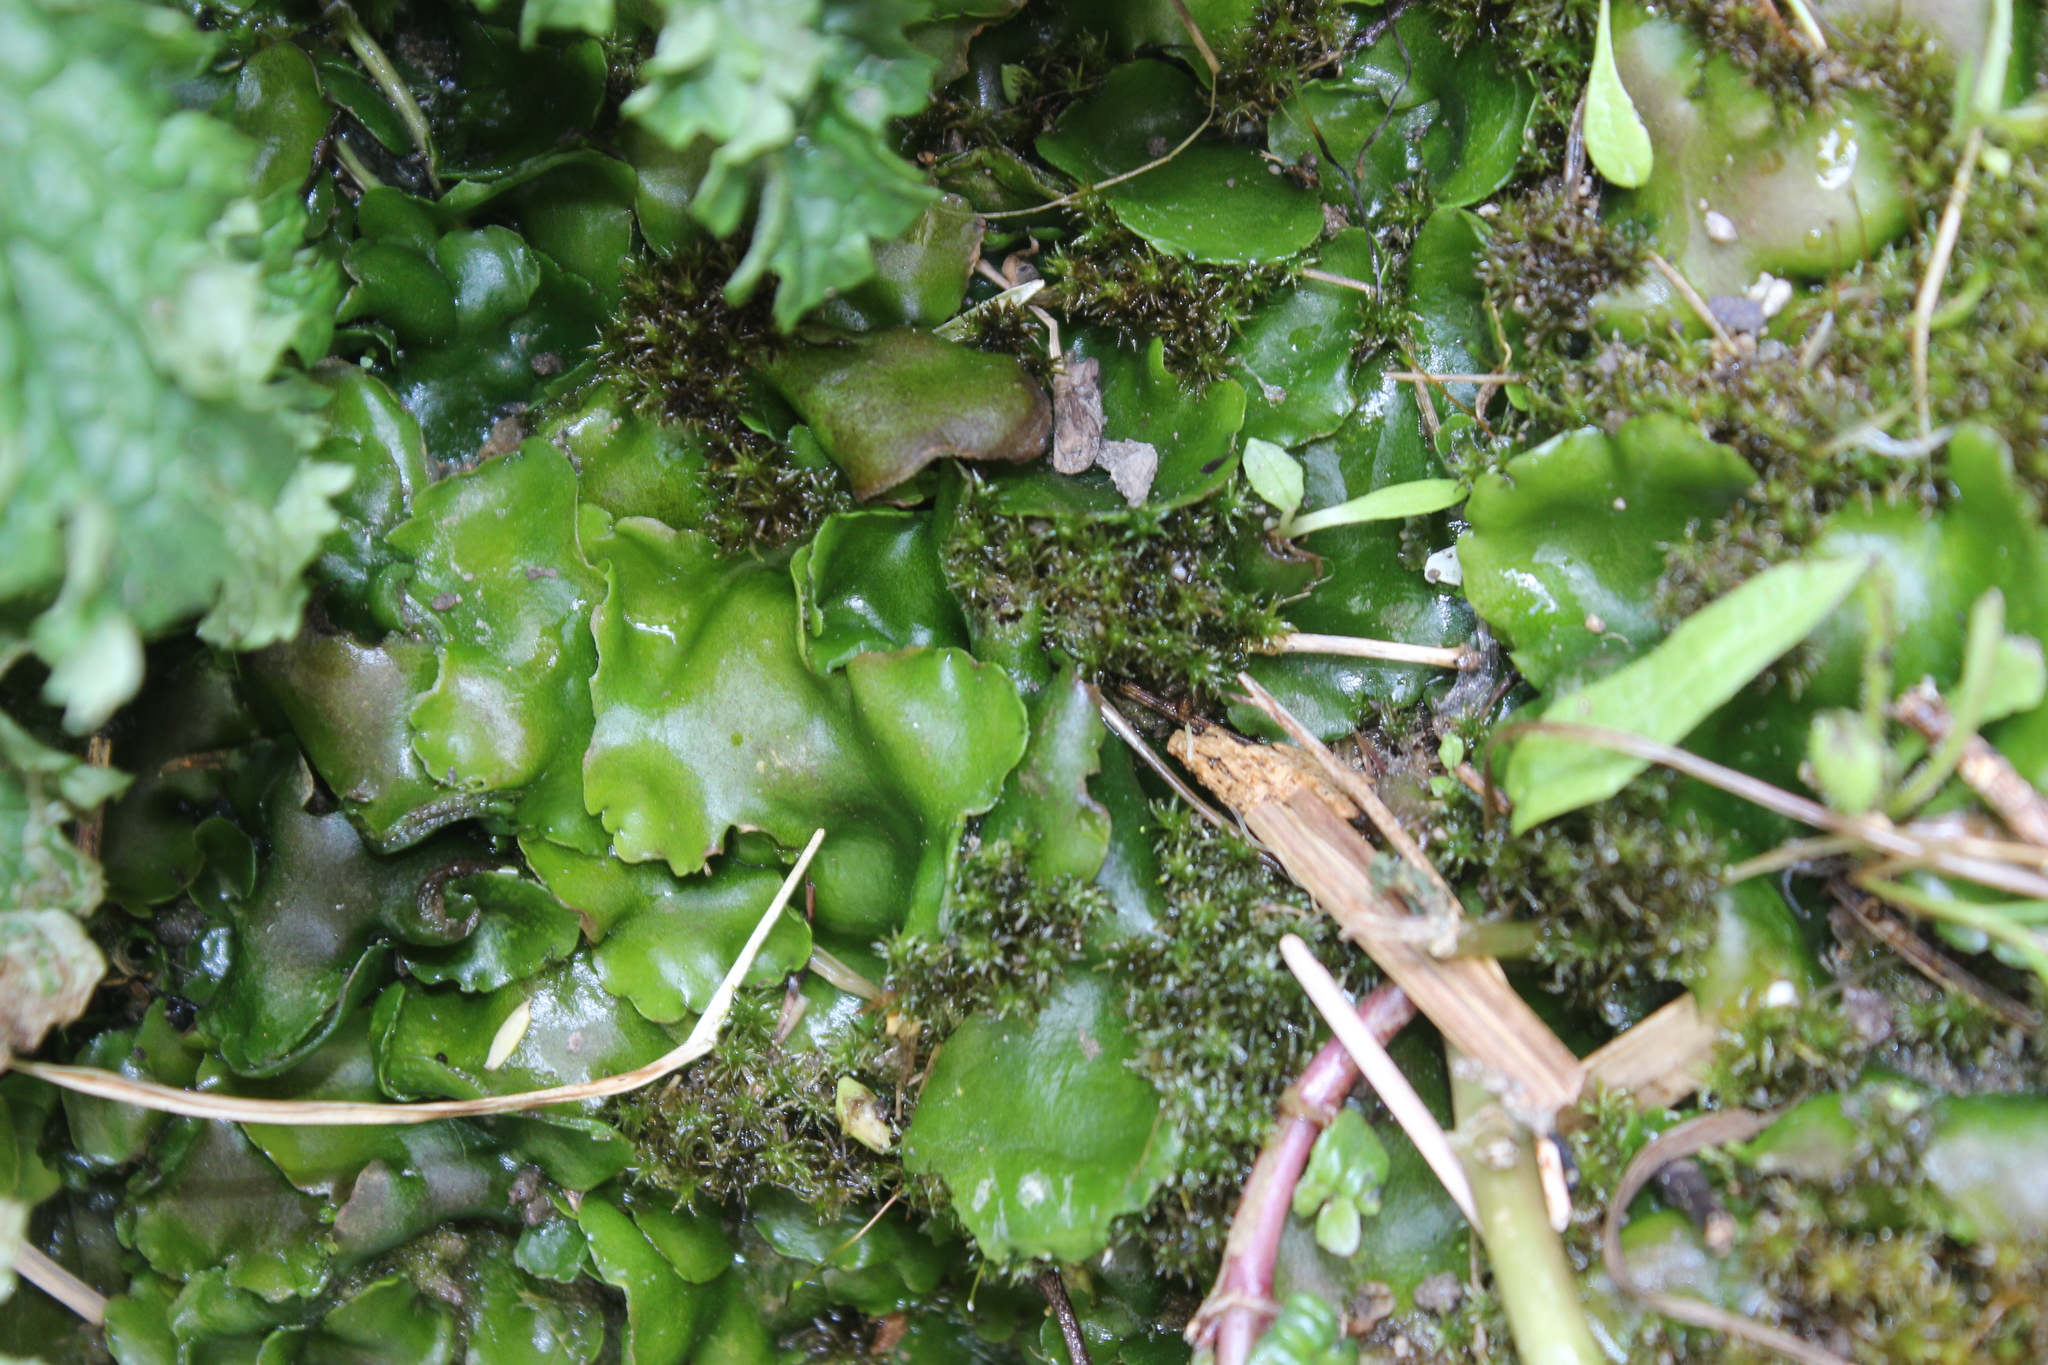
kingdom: Plantae
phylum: Marchantiophyta
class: Marchantiopsida
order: Marchantiales
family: Monocleaceae
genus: Monoclea
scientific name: Monoclea forsteri
